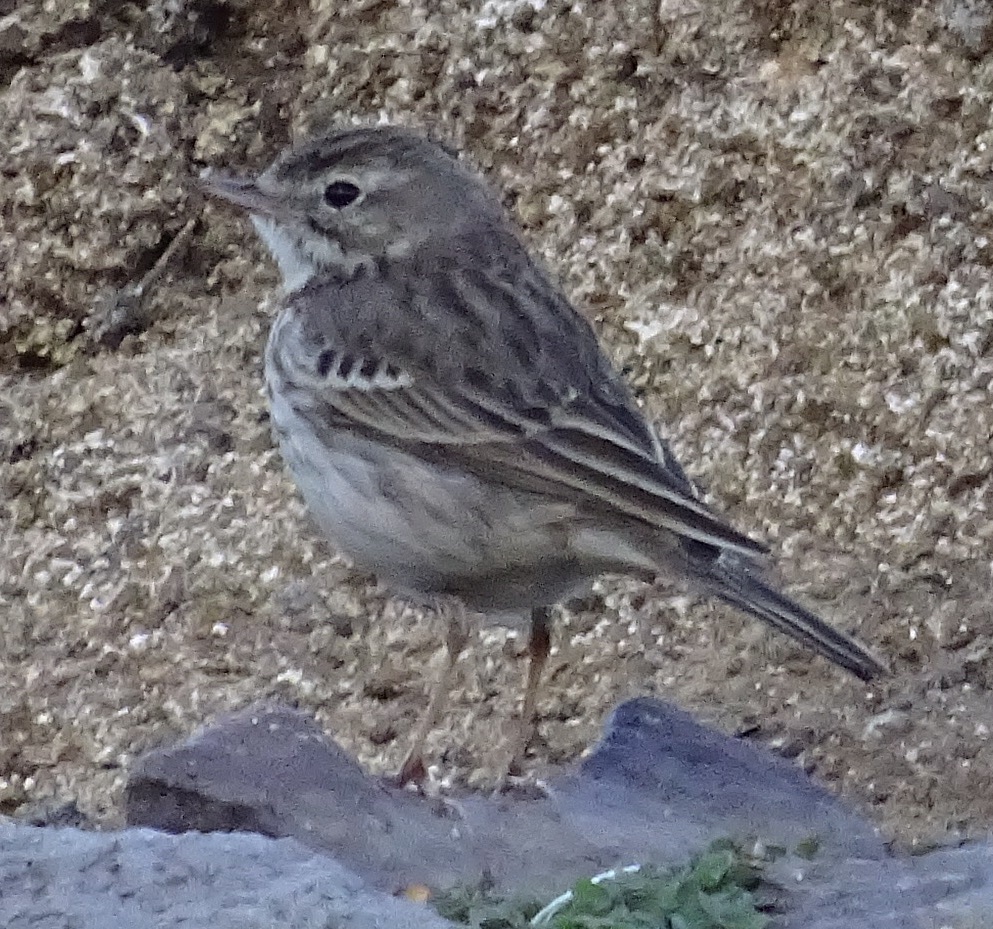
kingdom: Animalia
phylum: Chordata
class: Aves
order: Passeriformes
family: Motacillidae
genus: Anthus
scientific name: Anthus berthelotii
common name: Berthelot's pipit
